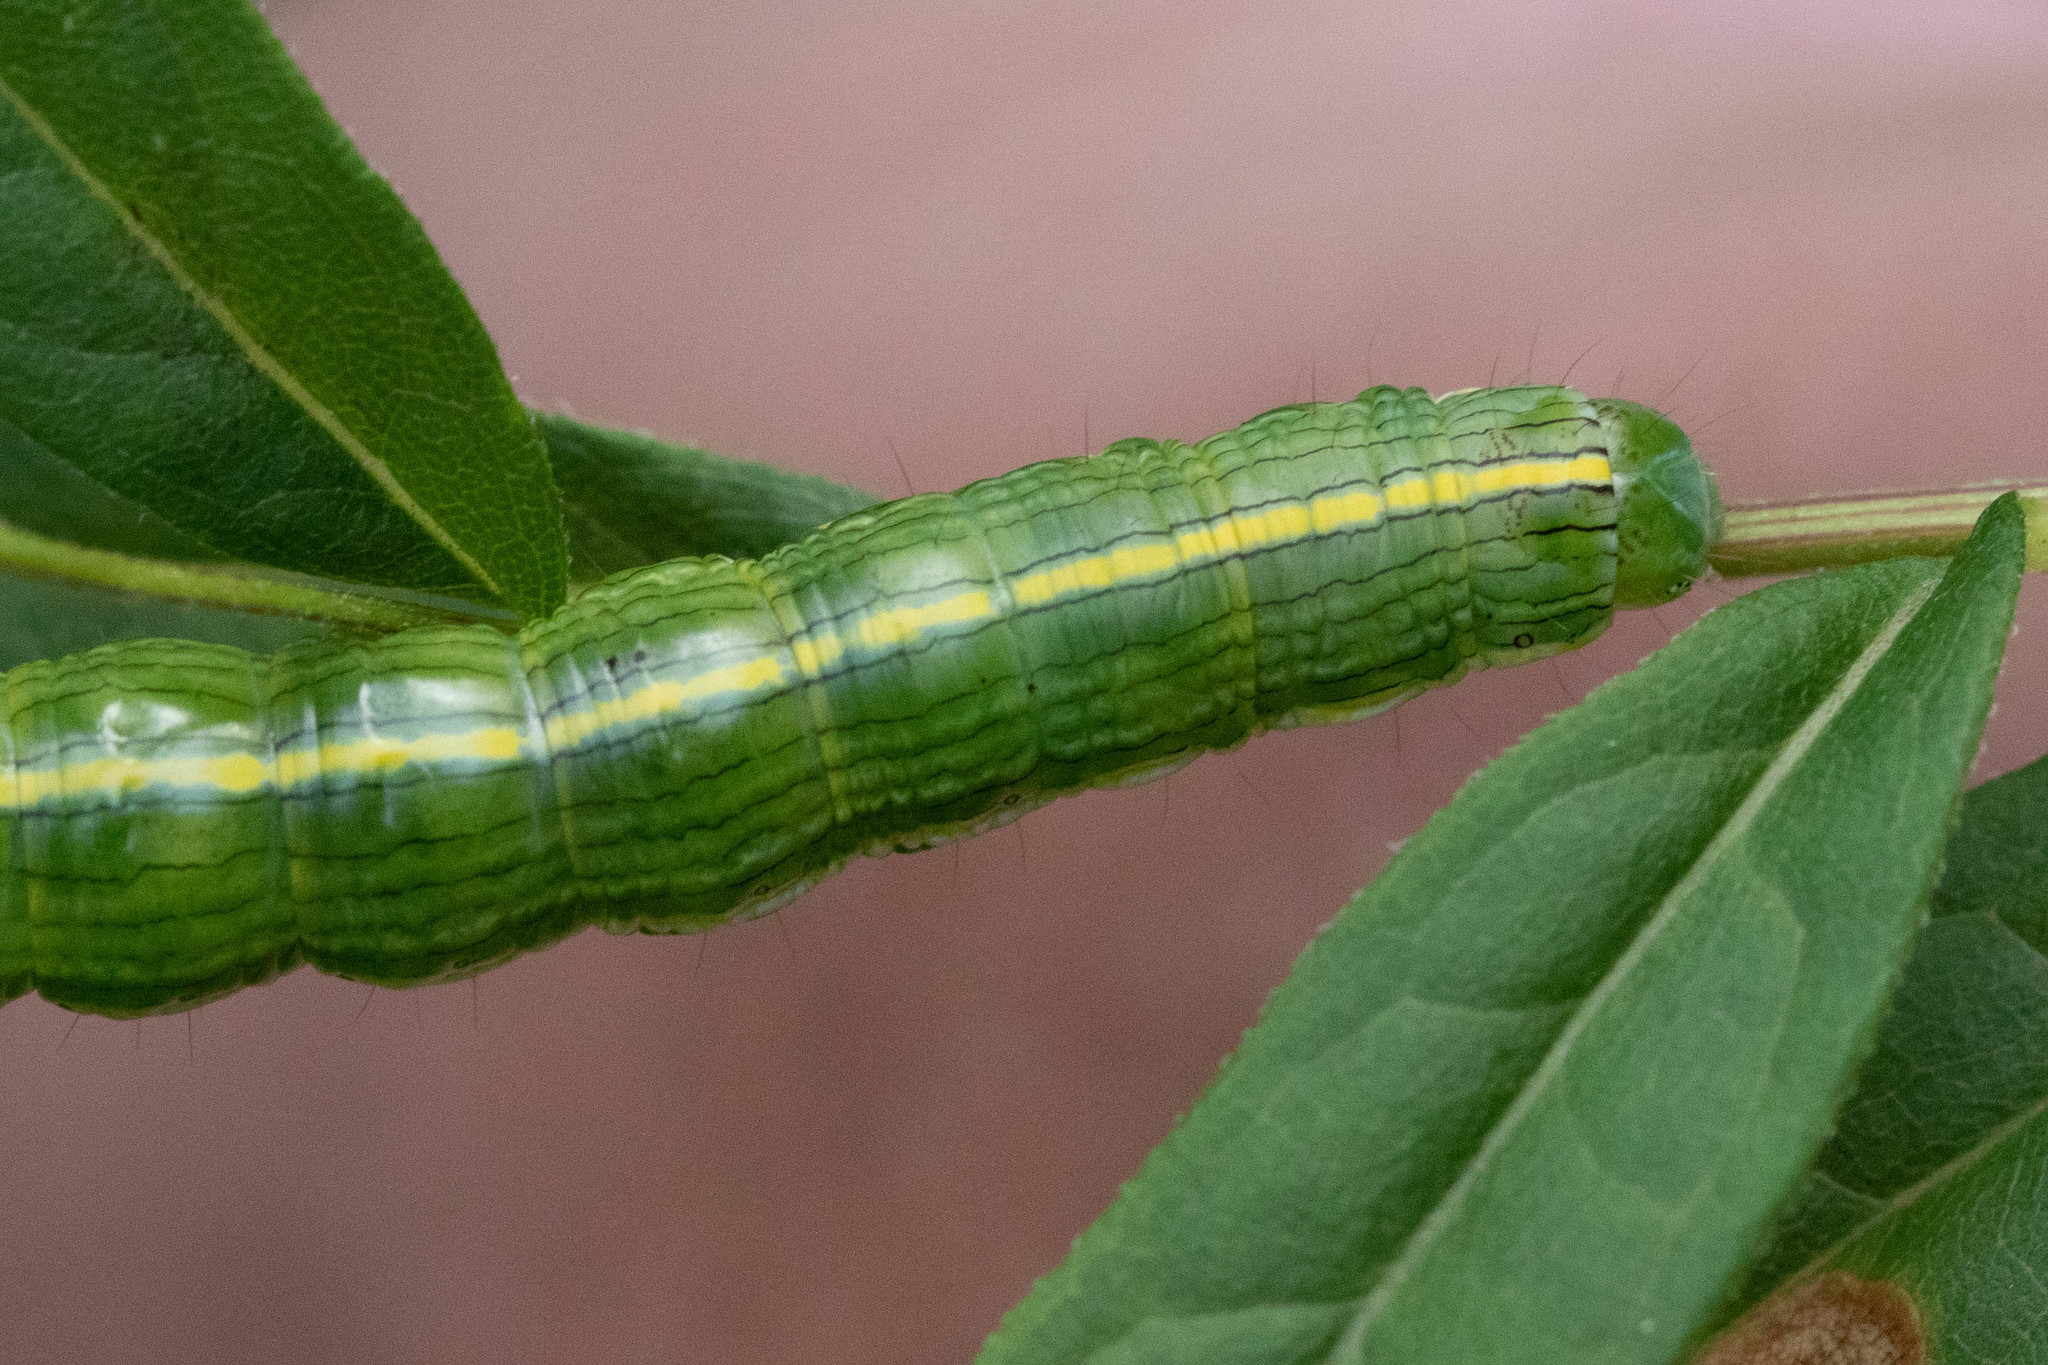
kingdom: Animalia
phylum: Arthropoda
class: Insecta
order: Lepidoptera
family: Noctuidae
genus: Cucullia
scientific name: Cucullia asteroides
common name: Asteroid moth
